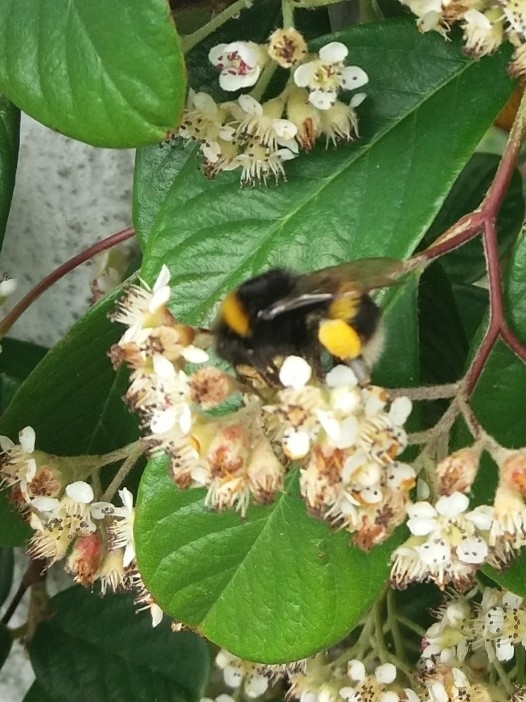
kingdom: Animalia
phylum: Arthropoda
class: Insecta
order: Hymenoptera
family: Apidae
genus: Bombus
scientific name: Bombus terrestris
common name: Buff-tailed bumblebee
